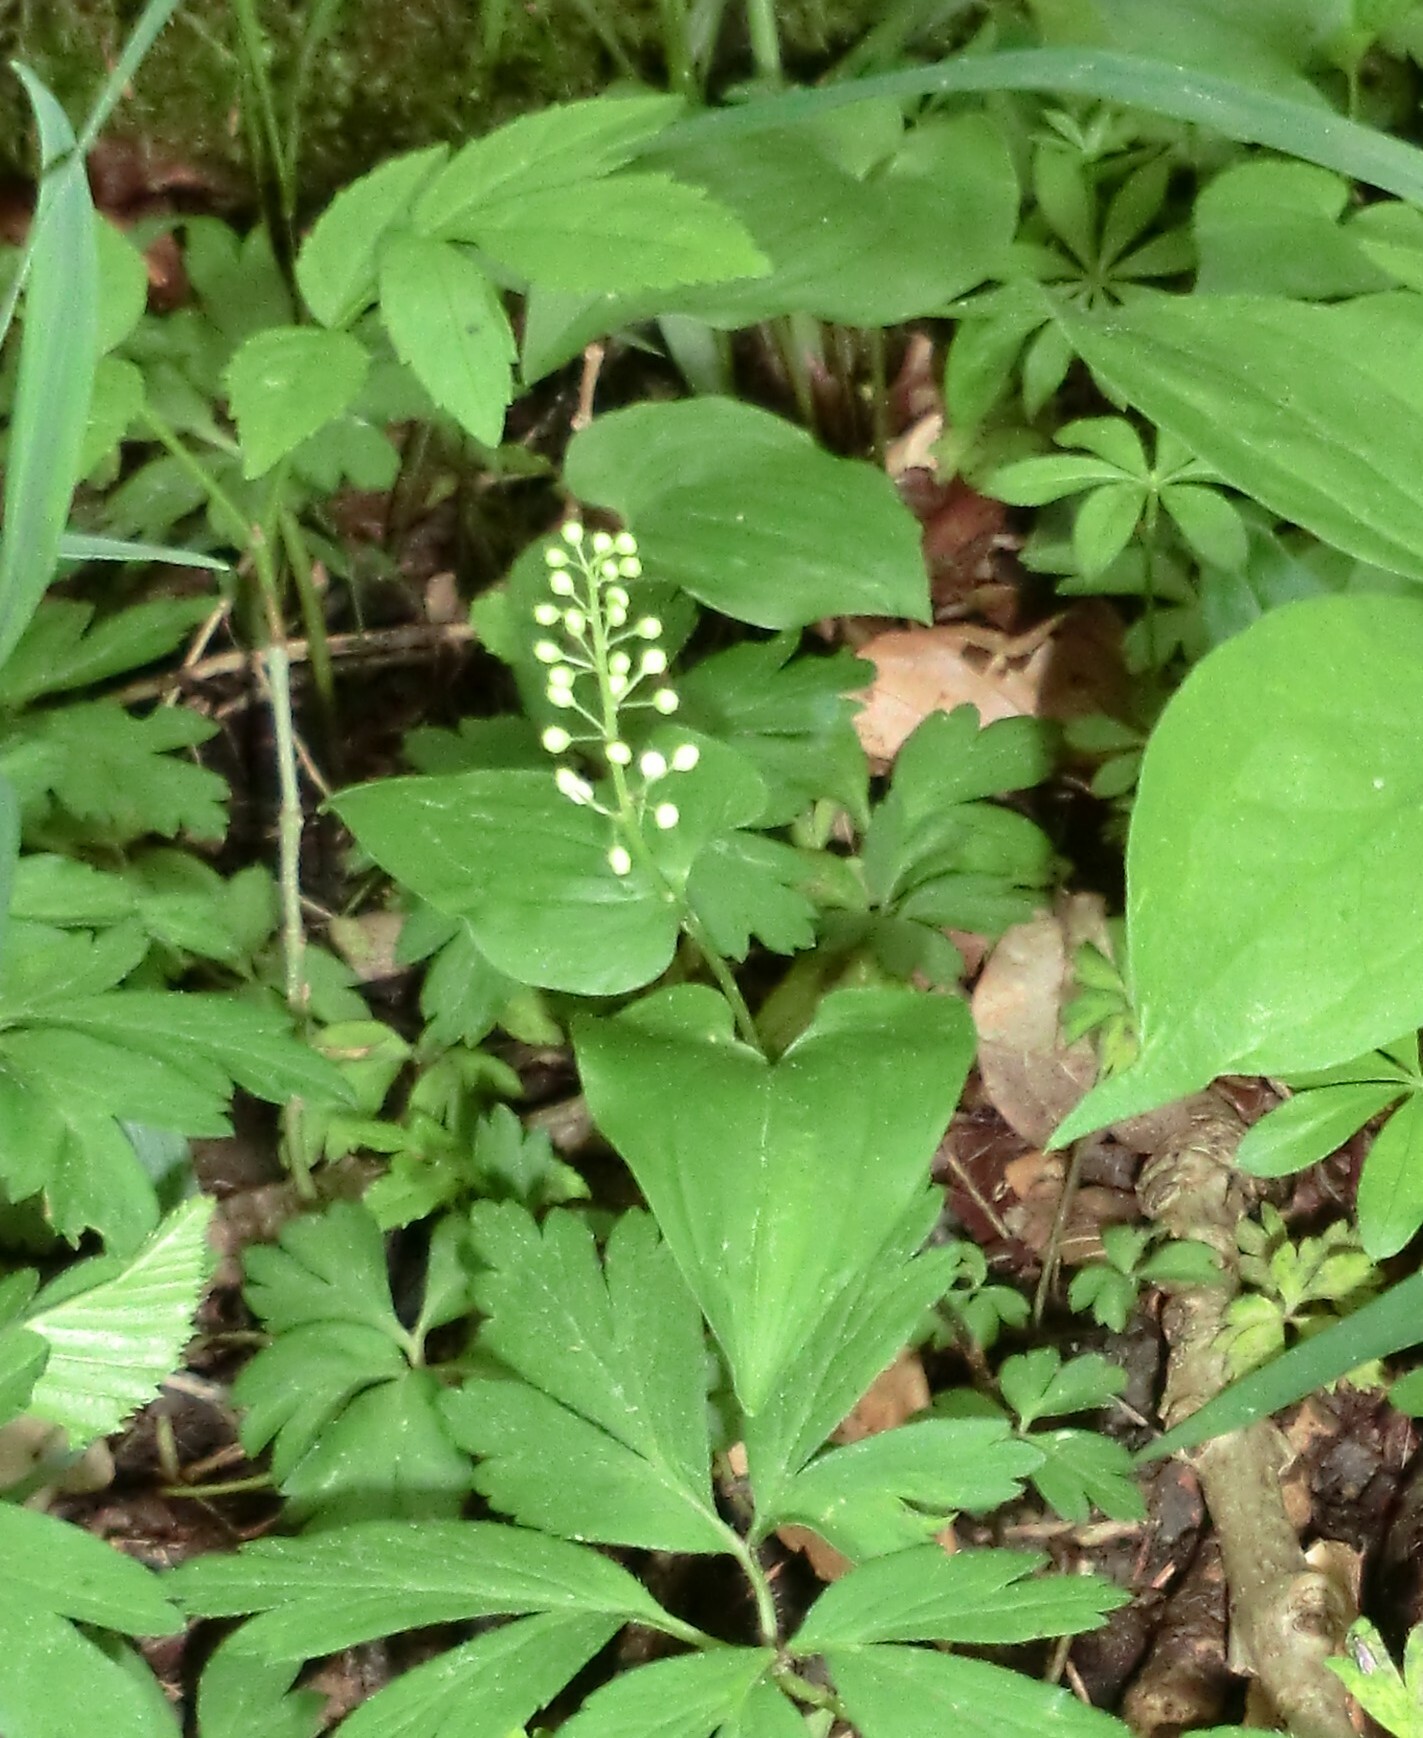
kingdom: Plantae
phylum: Tracheophyta
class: Liliopsida
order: Asparagales
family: Asparagaceae
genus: Maianthemum
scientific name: Maianthemum bifolium
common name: May lily
